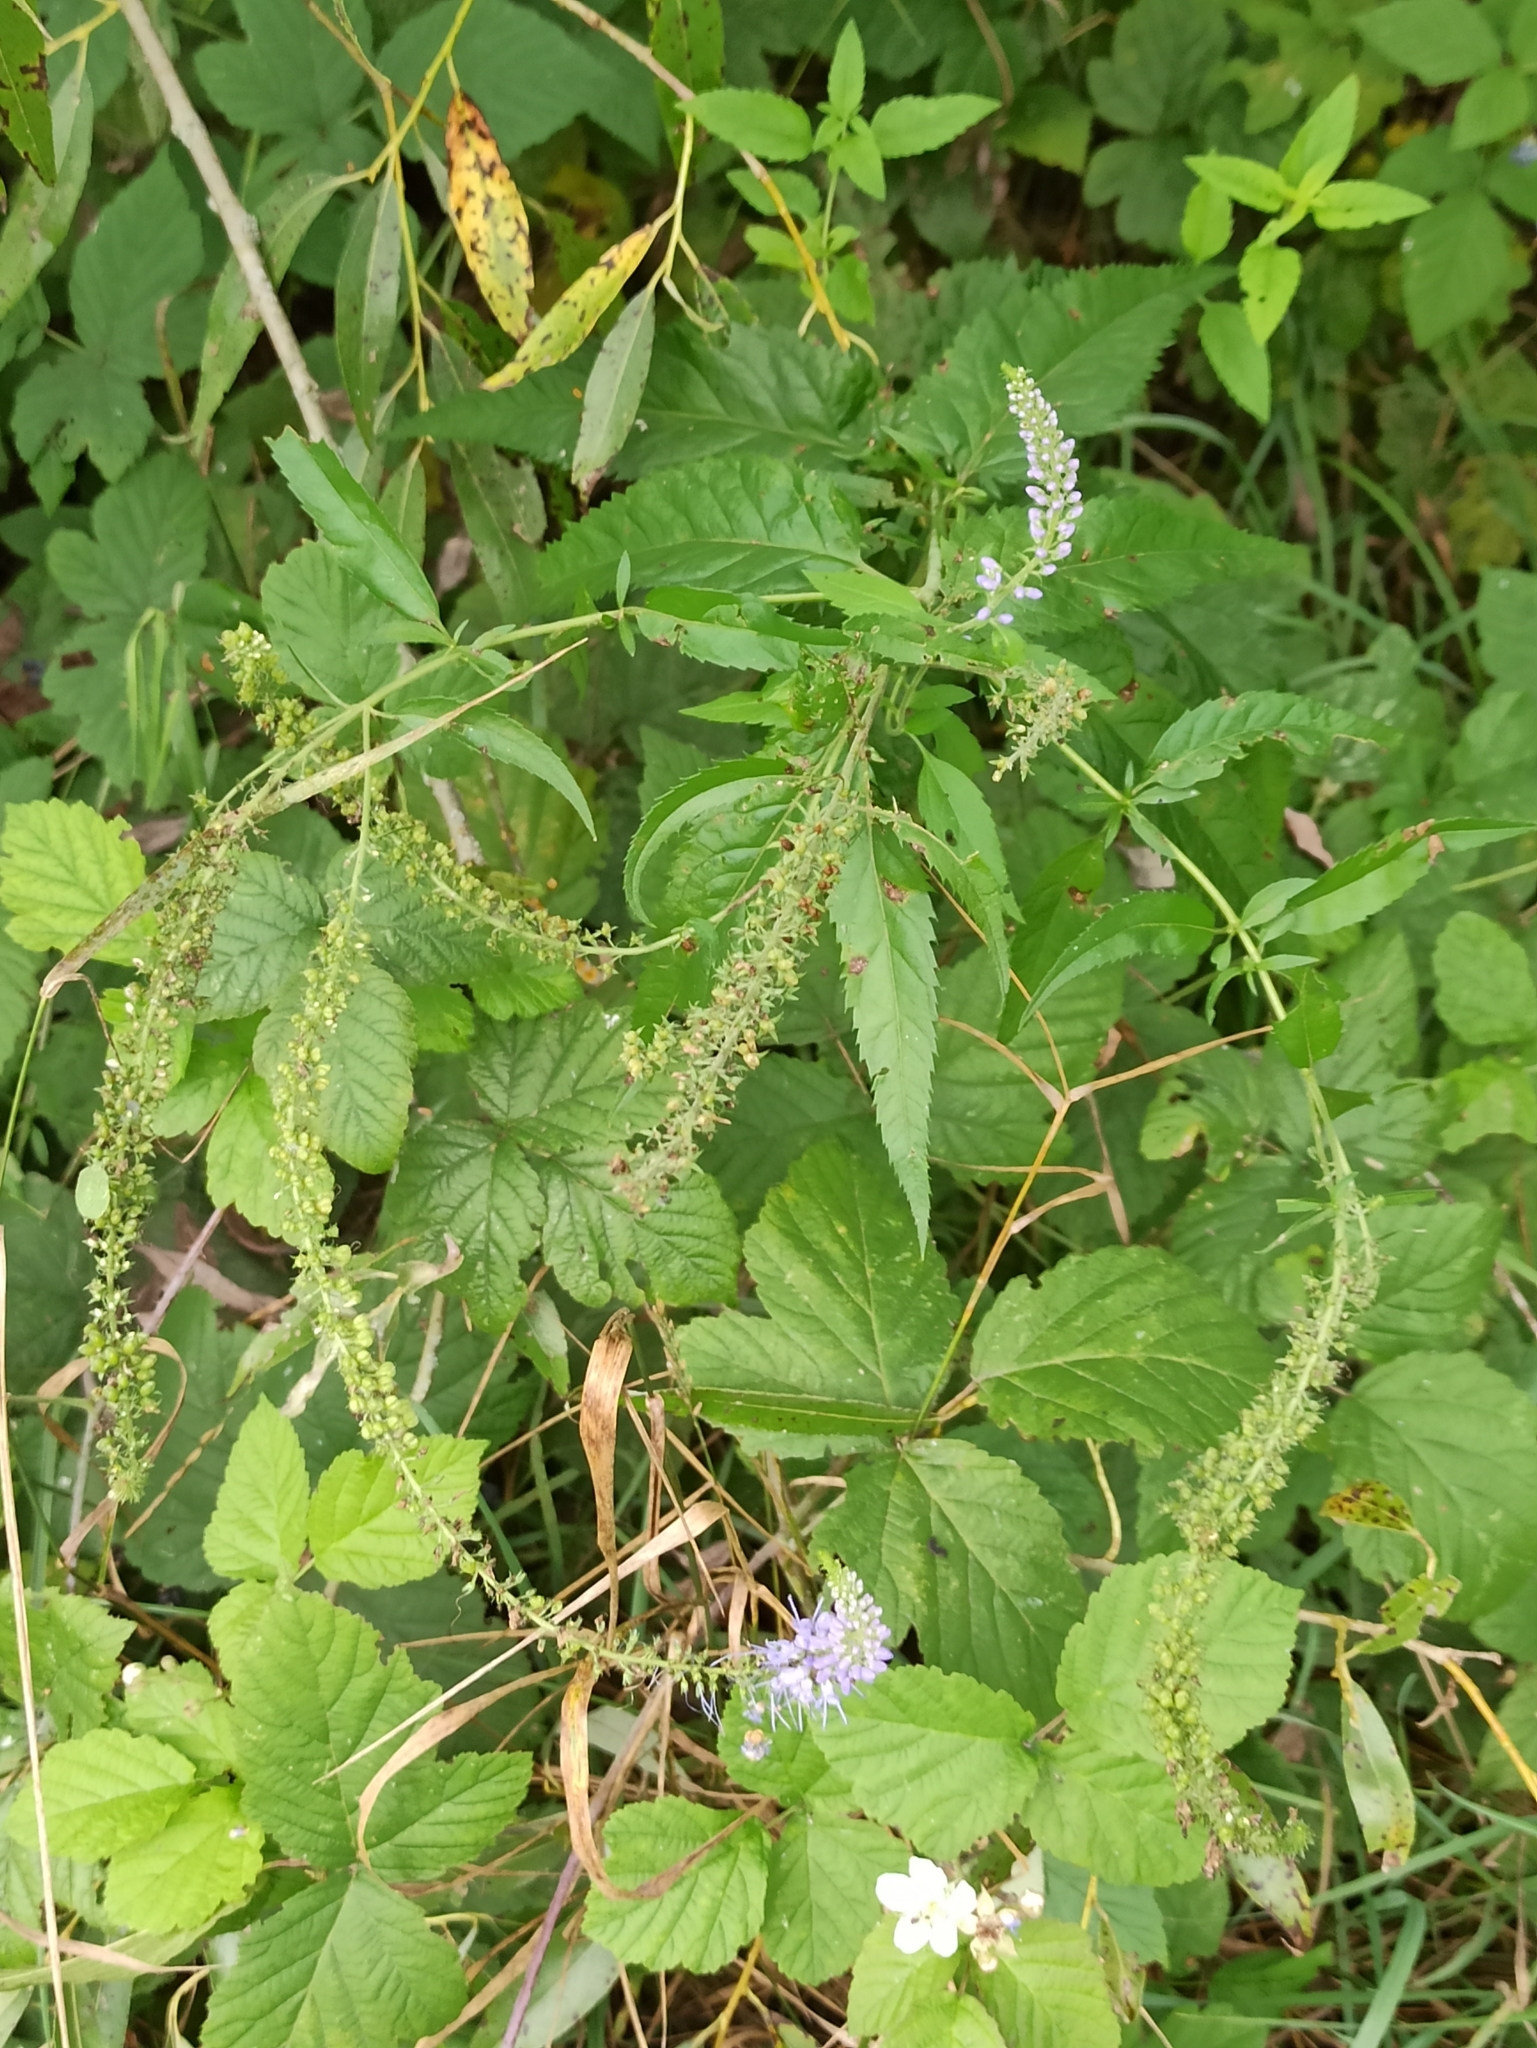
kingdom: Plantae
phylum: Tracheophyta
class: Magnoliopsida
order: Lamiales
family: Plantaginaceae
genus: Veronica
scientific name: Veronica longifolia
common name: Garden speedwell
